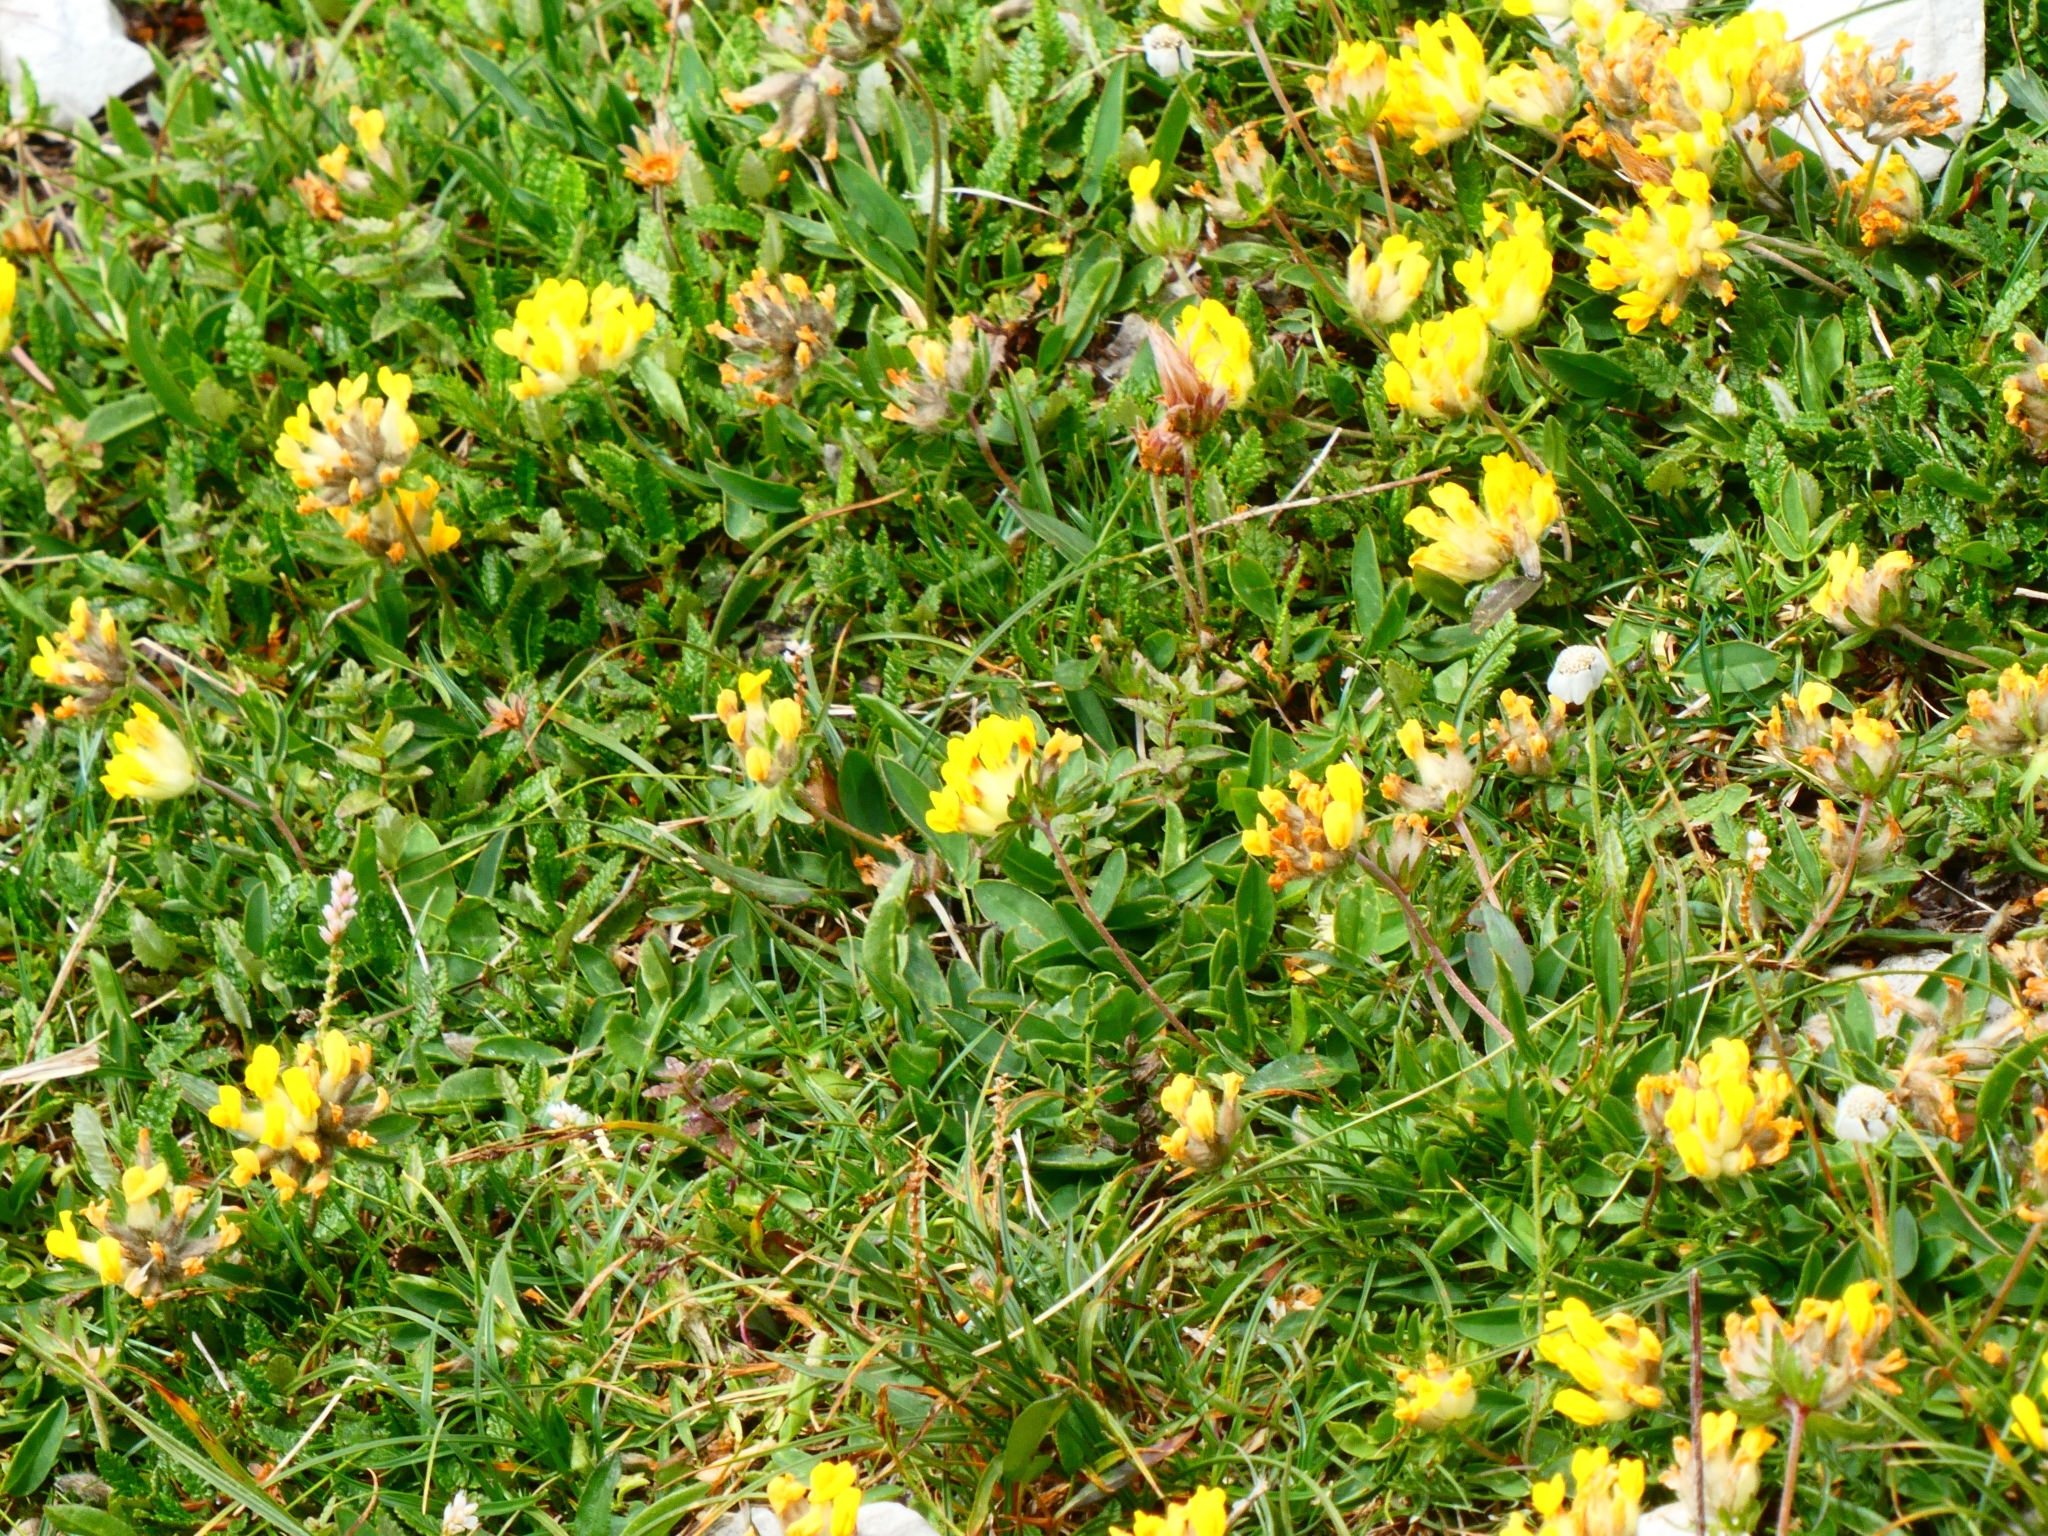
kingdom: Plantae
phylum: Tracheophyta
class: Magnoliopsida
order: Fabales
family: Fabaceae
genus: Anthyllis
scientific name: Anthyllis vulneraria
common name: Kidney vetch
